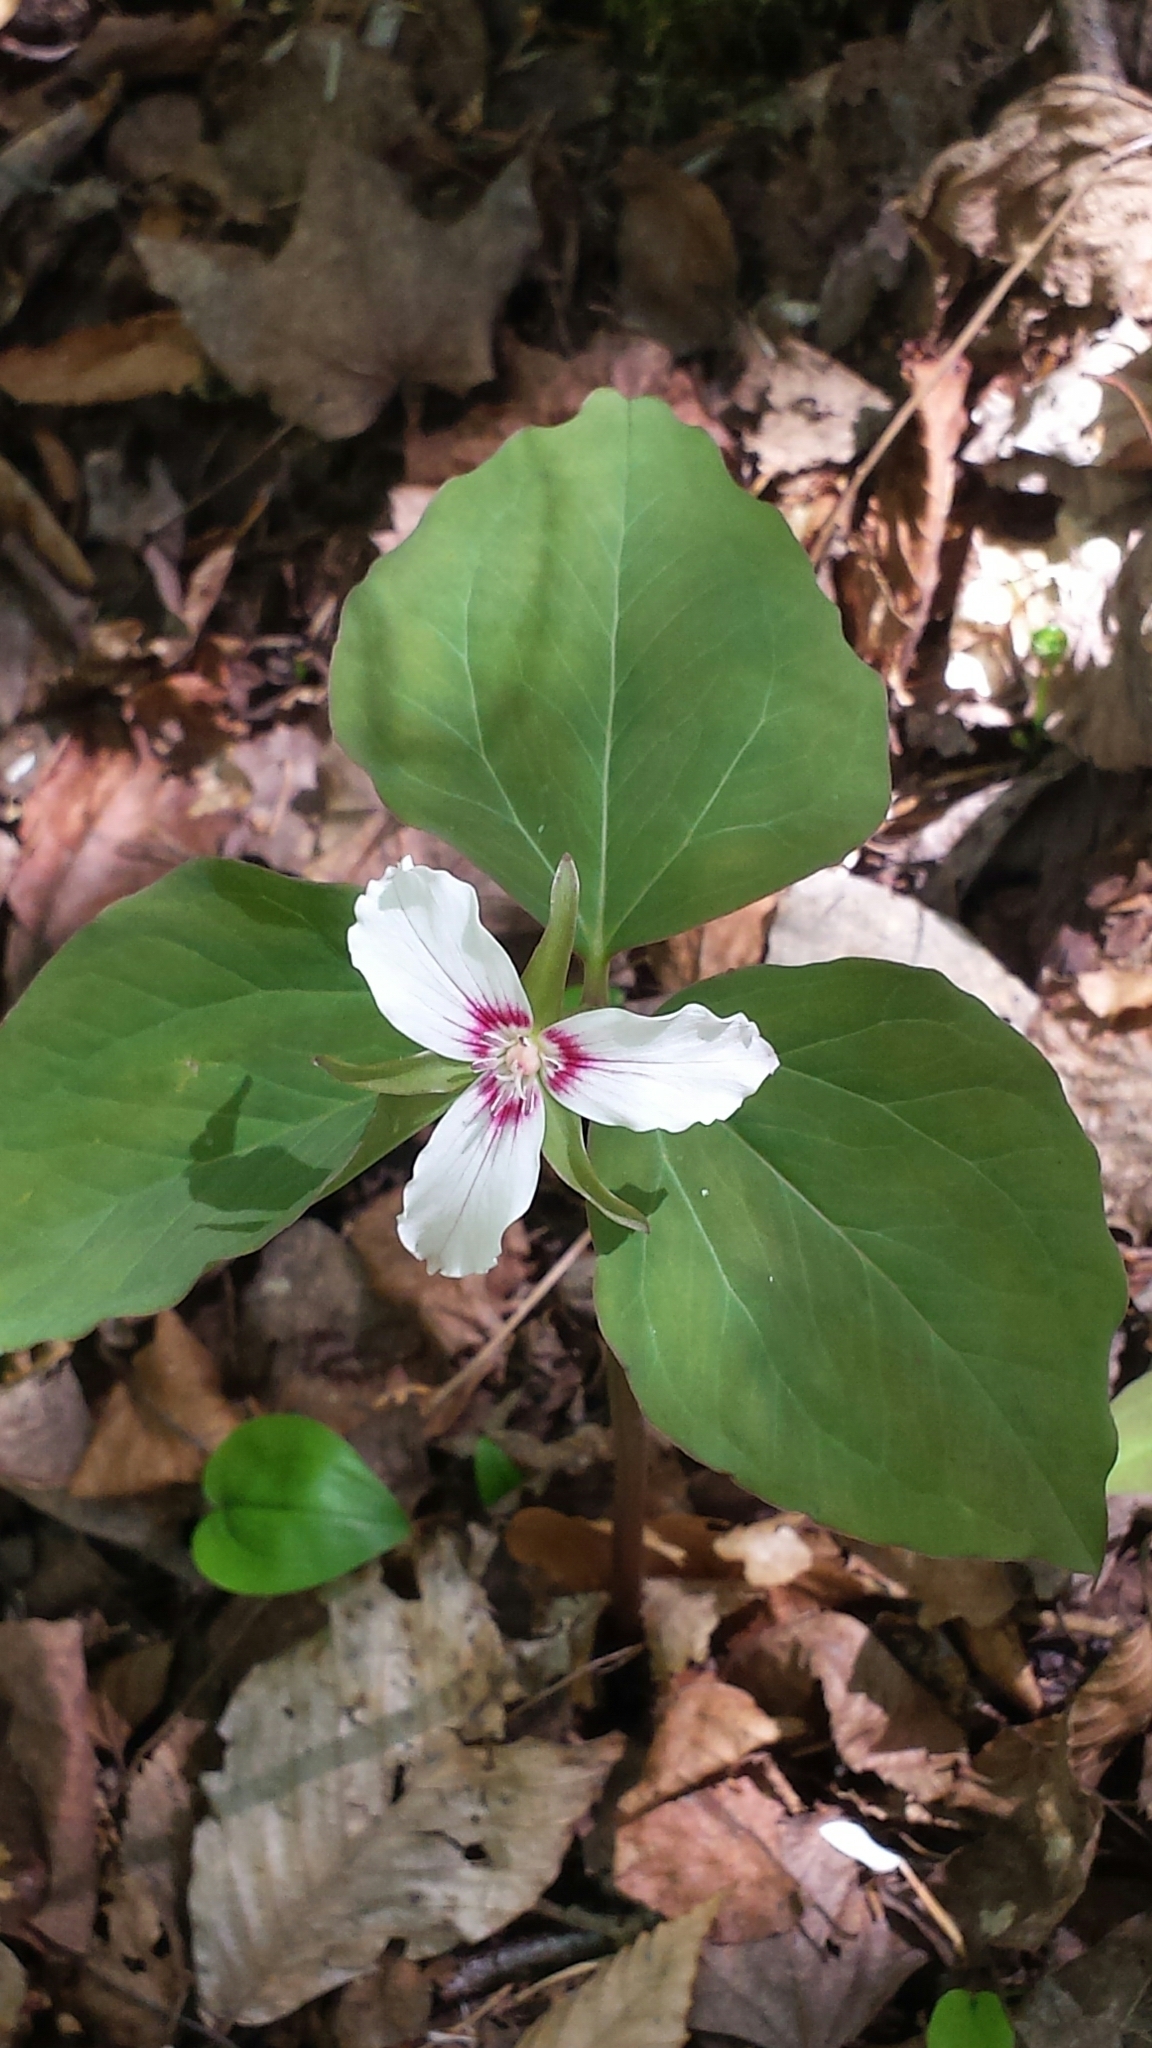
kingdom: Plantae
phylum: Tracheophyta
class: Liliopsida
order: Liliales
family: Melanthiaceae
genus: Trillium
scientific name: Trillium undulatum
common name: Paint trillium
